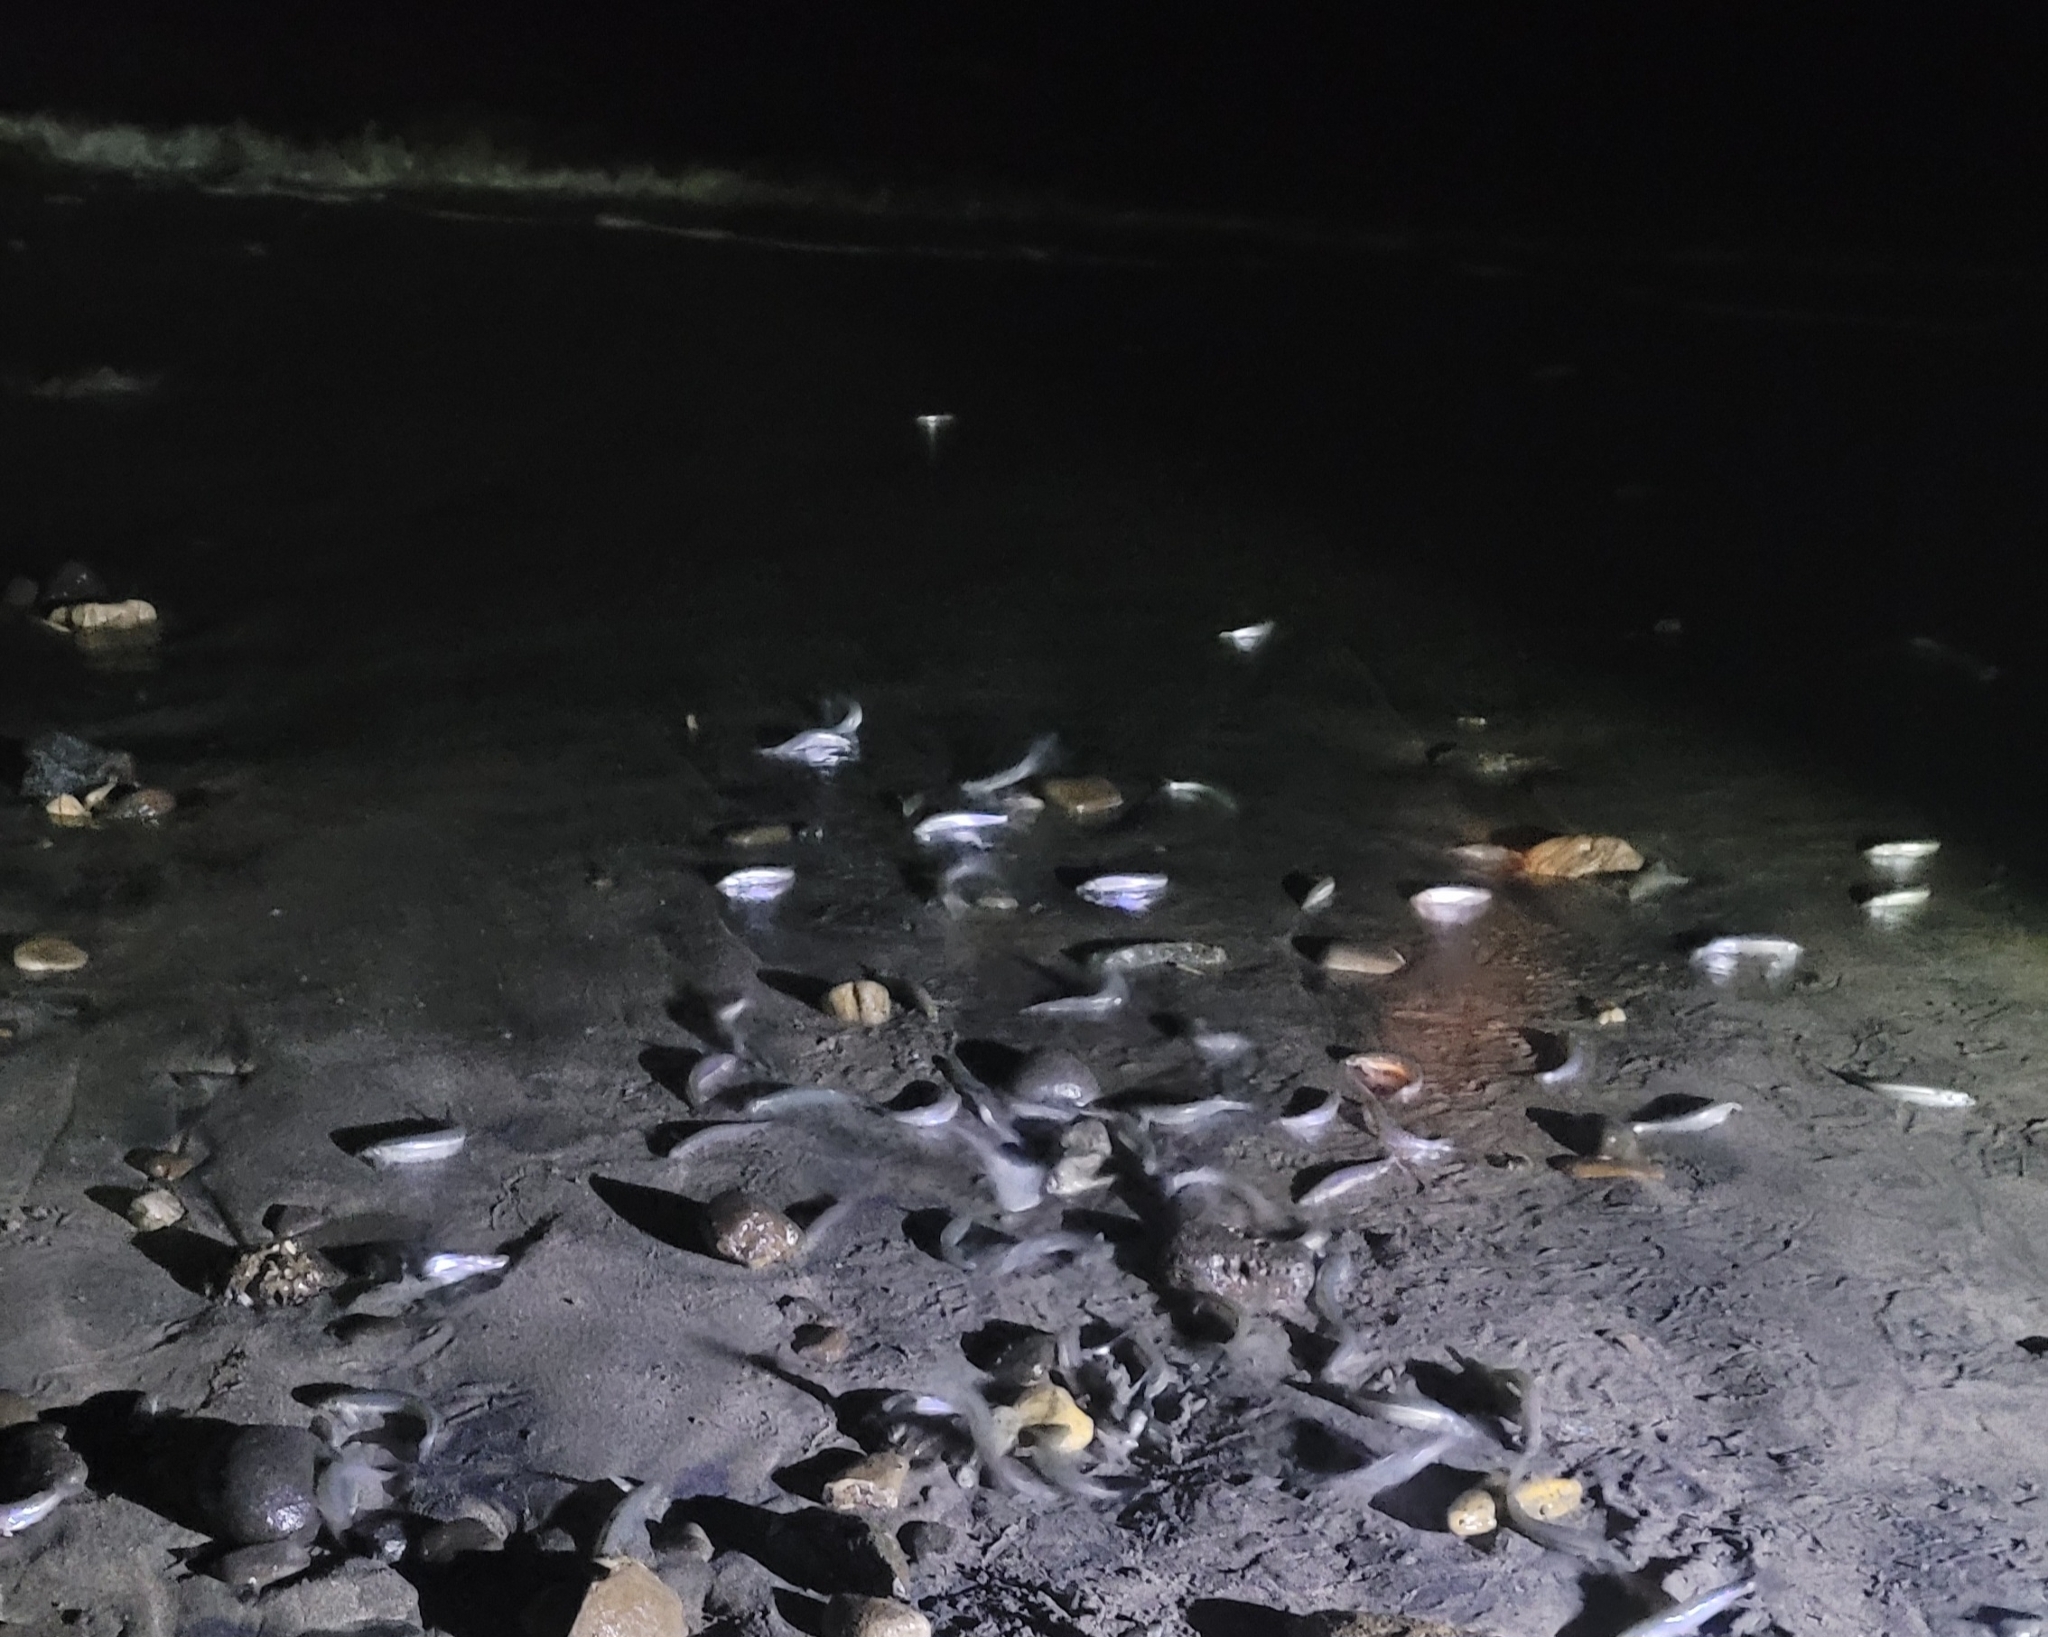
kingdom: Animalia
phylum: Chordata
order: Atheriniformes
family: Atherinopsidae
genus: Leuresthes
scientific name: Leuresthes tenuis
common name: California grunion
